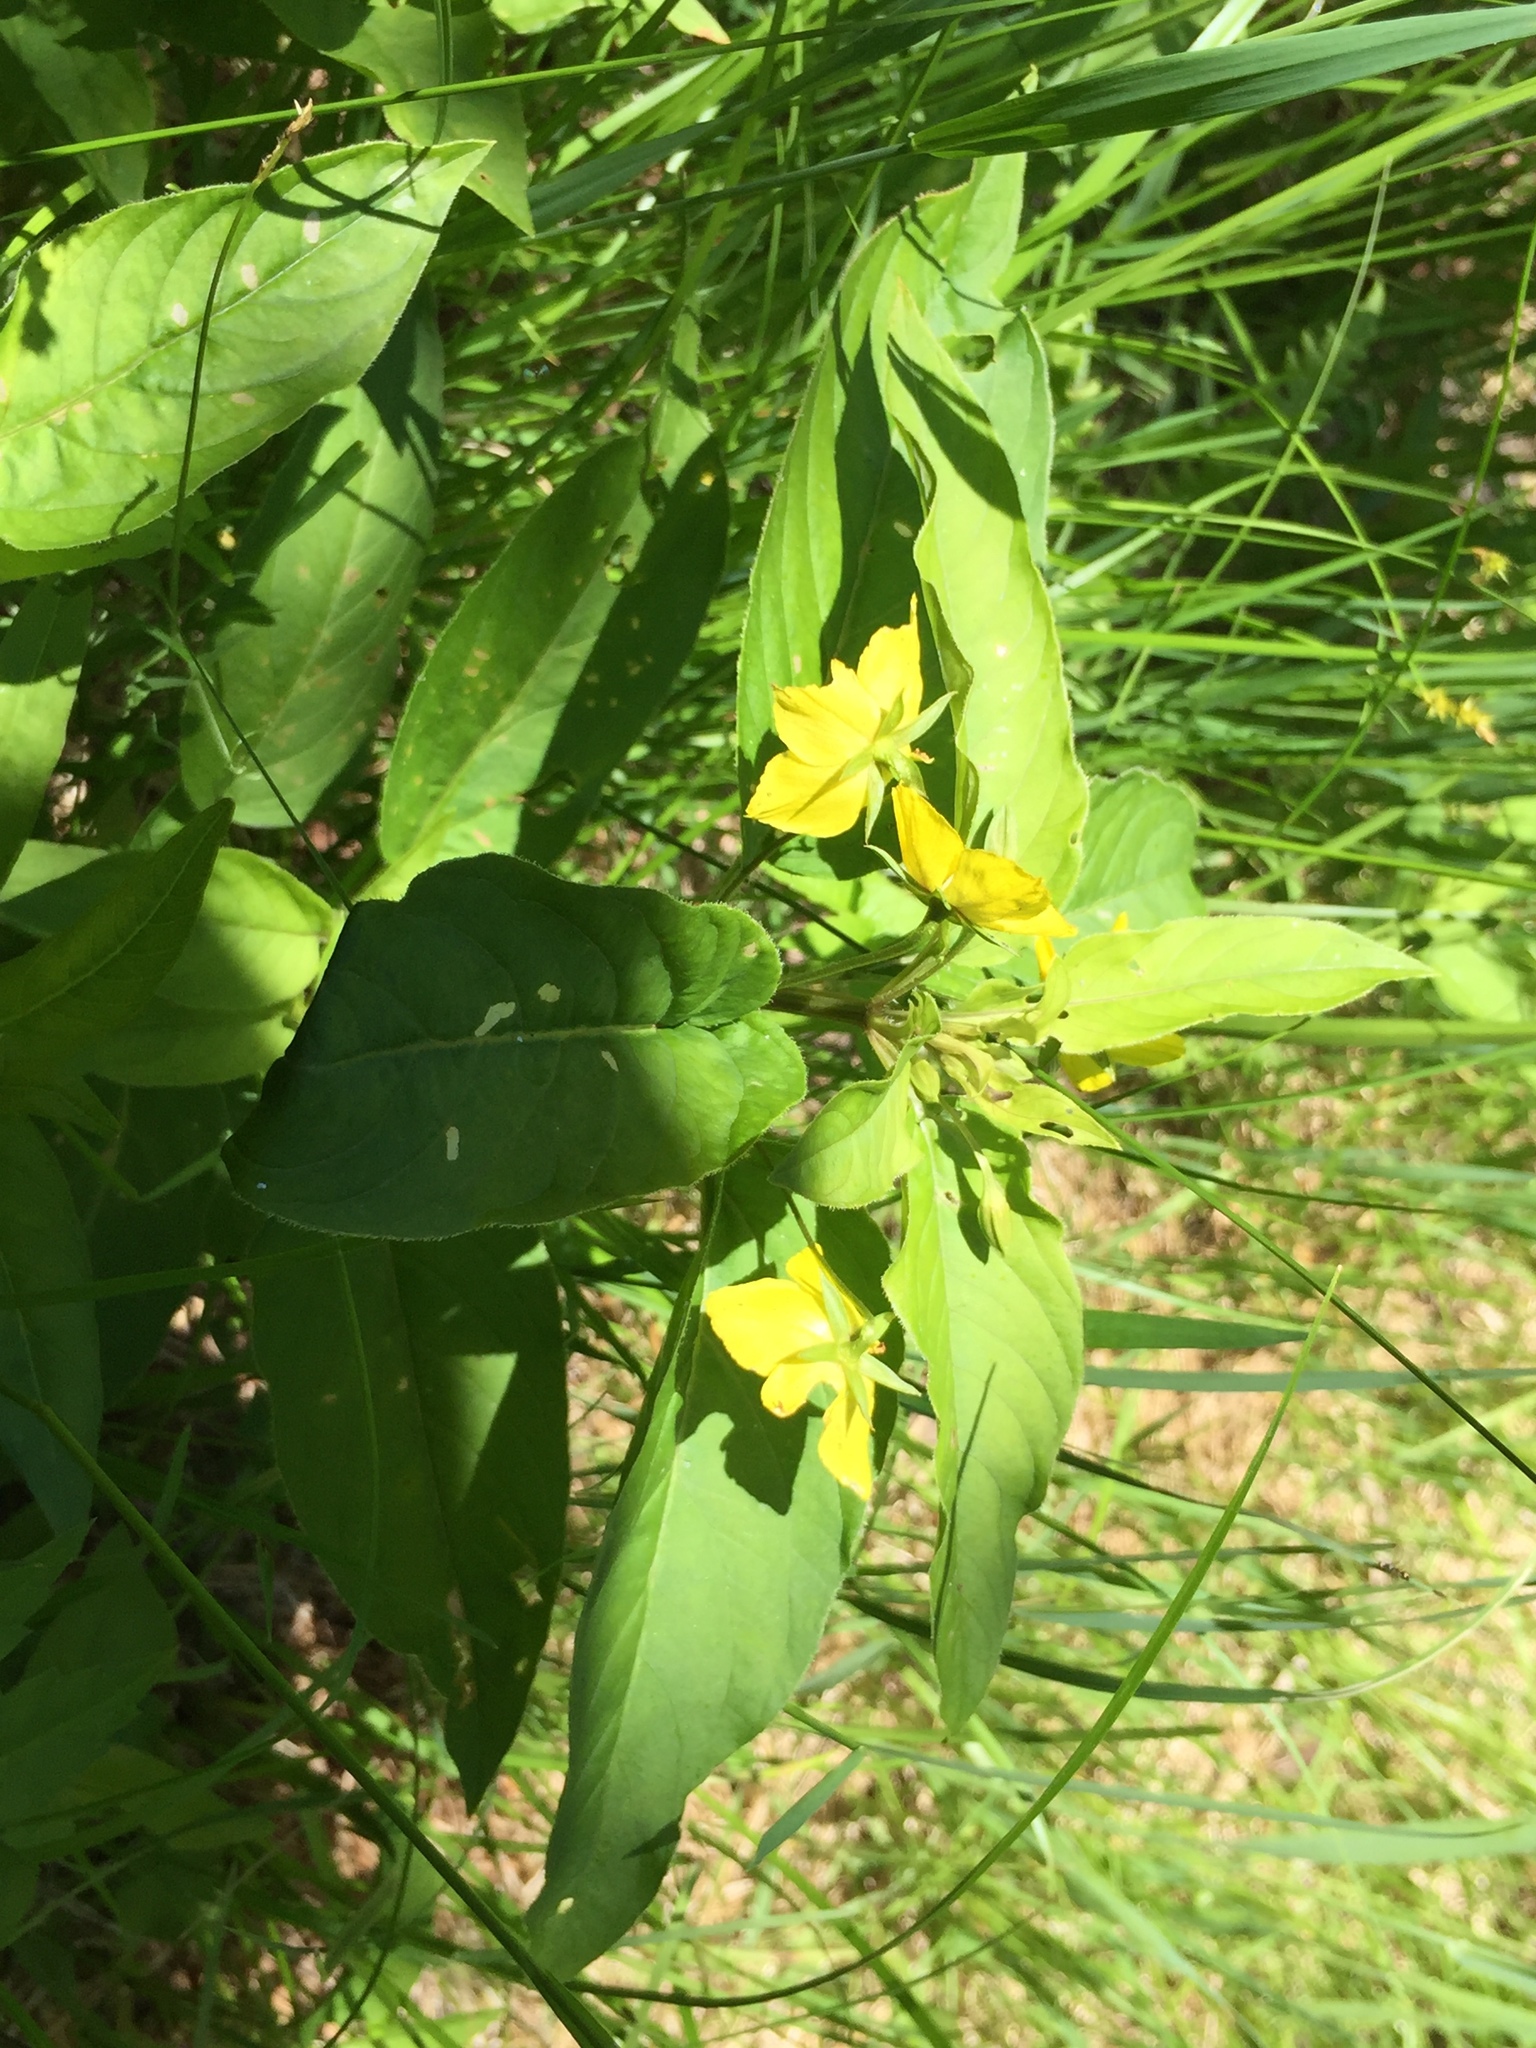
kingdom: Plantae
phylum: Tracheophyta
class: Magnoliopsida
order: Ericales
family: Primulaceae
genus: Lysimachia
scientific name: Lysimachia ciliata
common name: Fringed loosestrife
